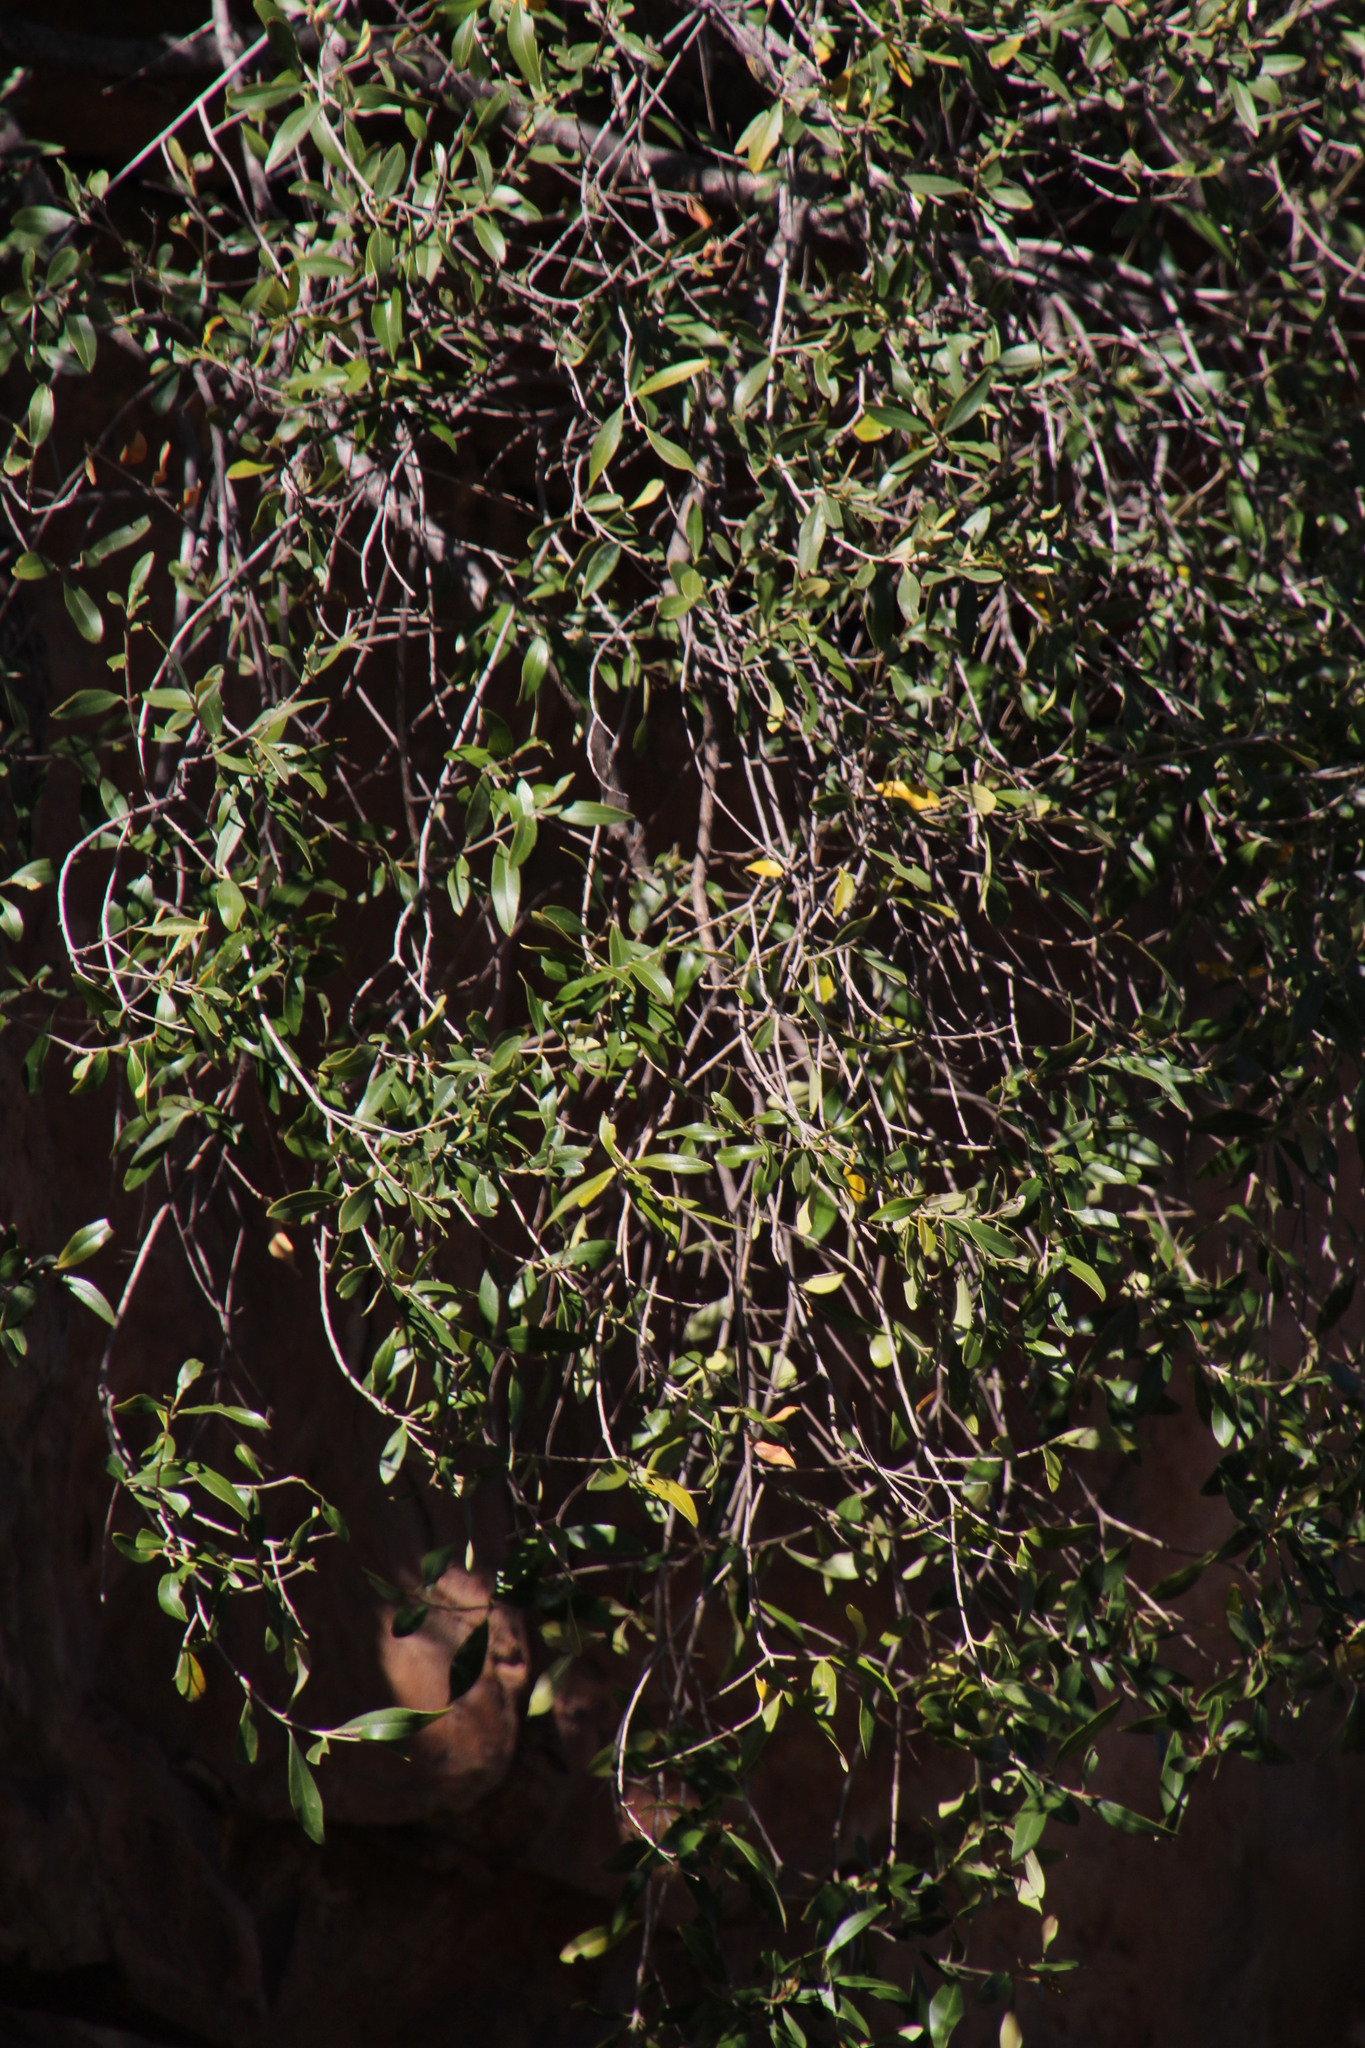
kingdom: Plantae
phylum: Tracheophyta
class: Magnoliopsida
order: Celastrales
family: Celastraceae
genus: Gymnosporia
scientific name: Gymnosporia laurina
